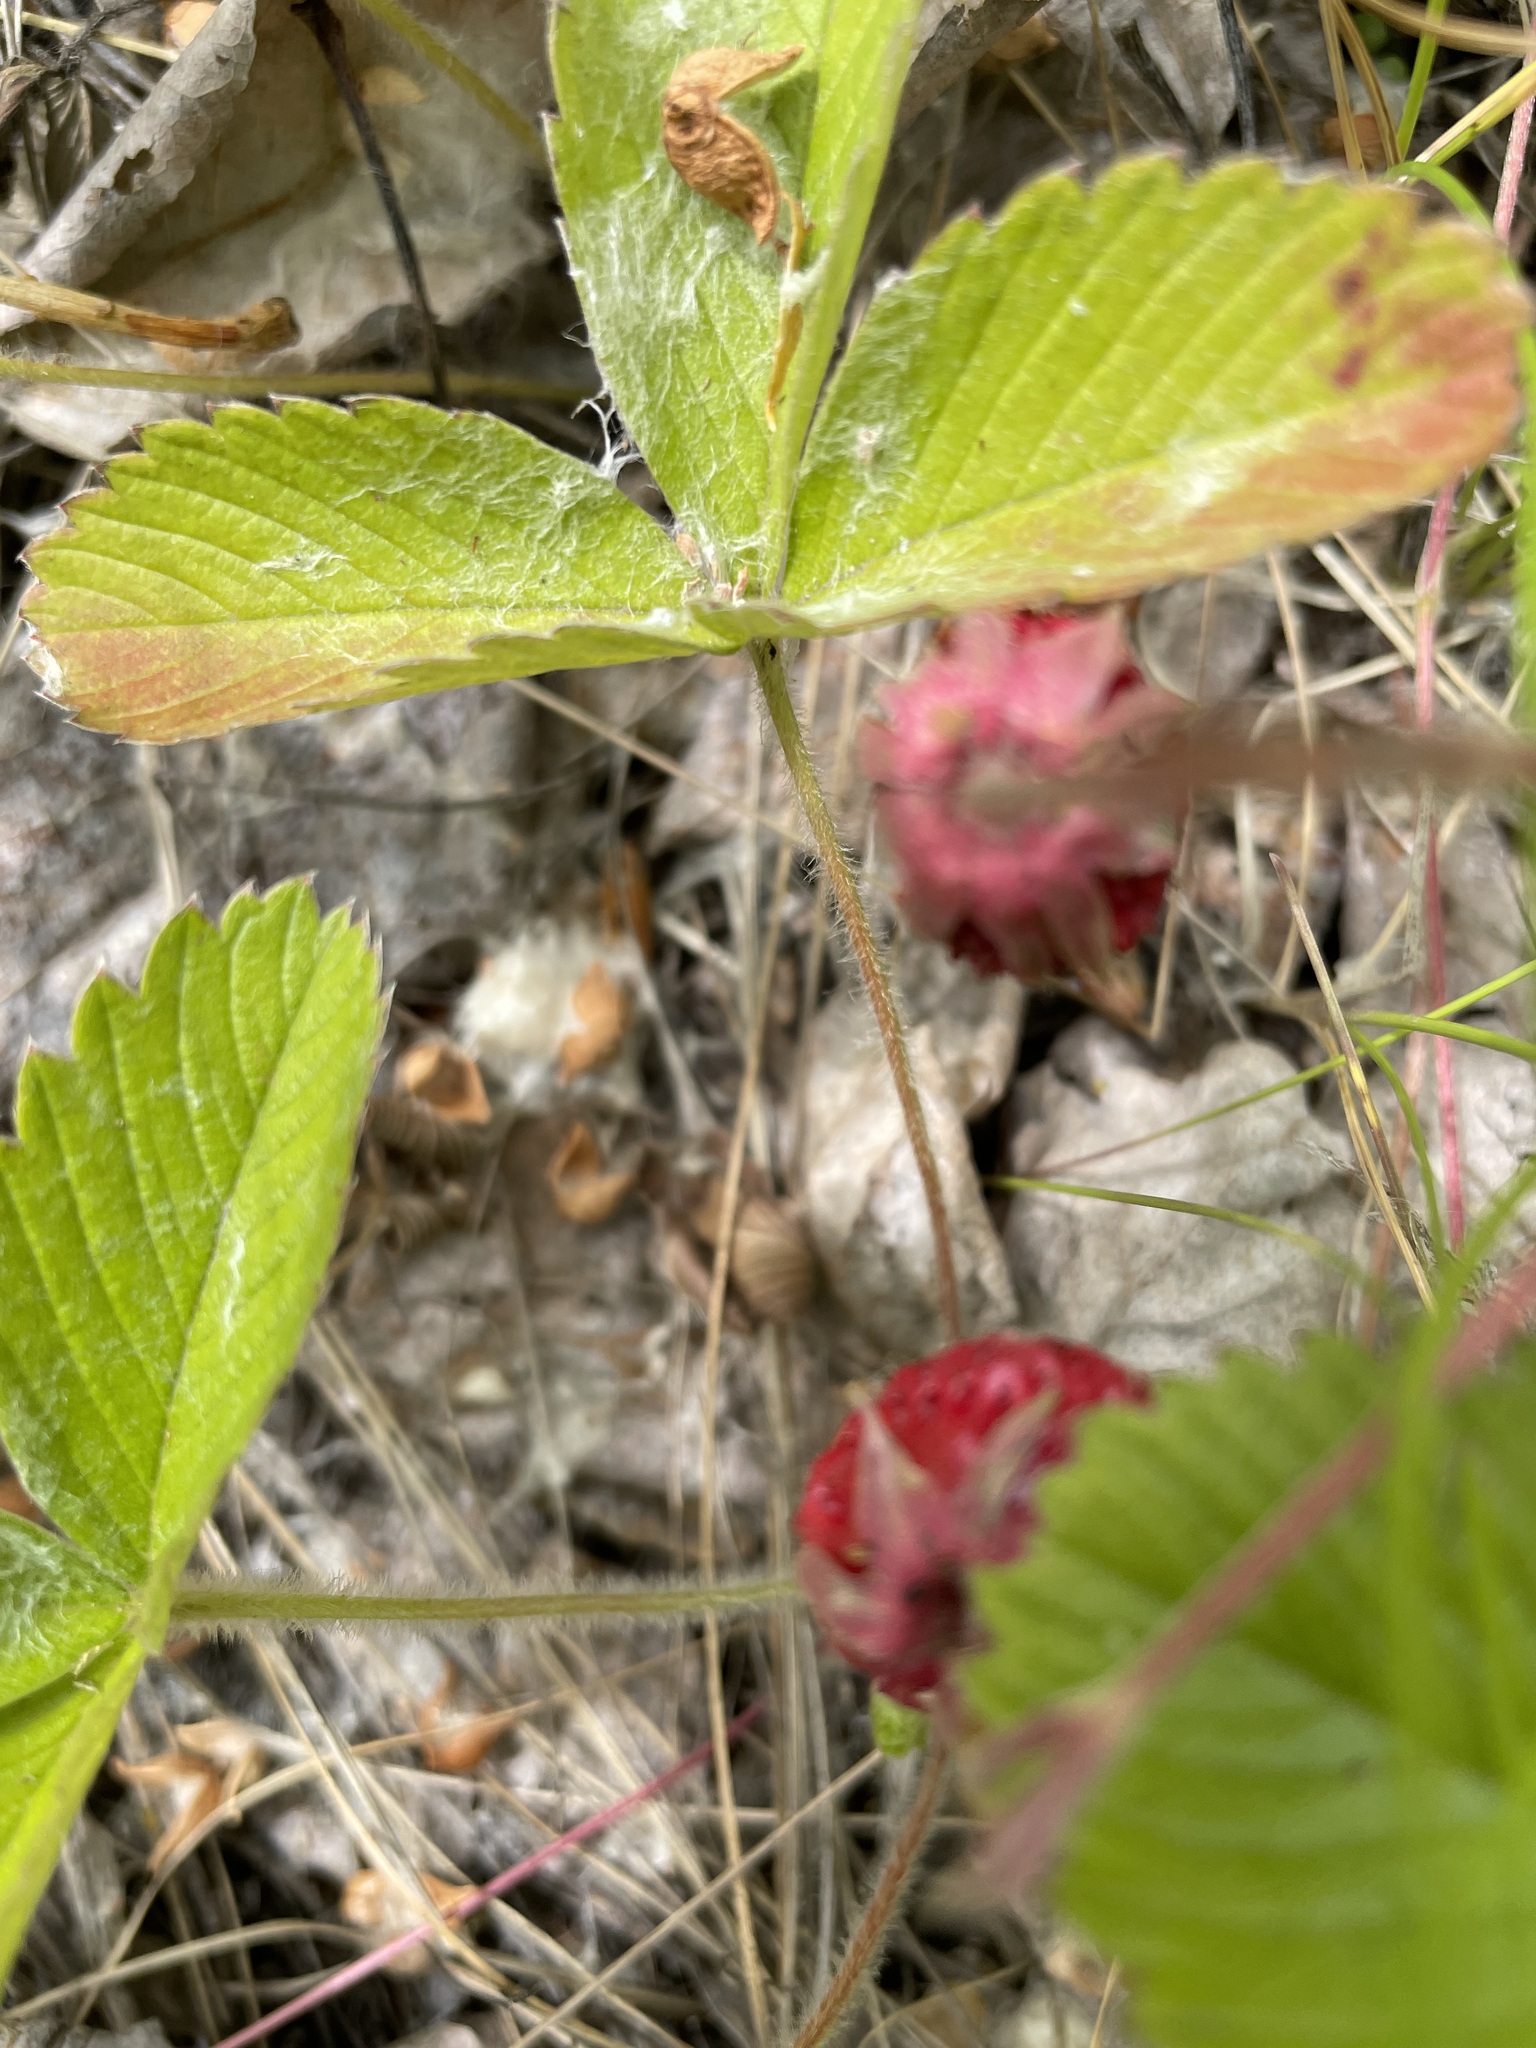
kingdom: Plantae
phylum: Tracheophyta
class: Magnoliopsida
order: Rosales
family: Rosaceae
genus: Fragaria
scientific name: Fragaria viridis
